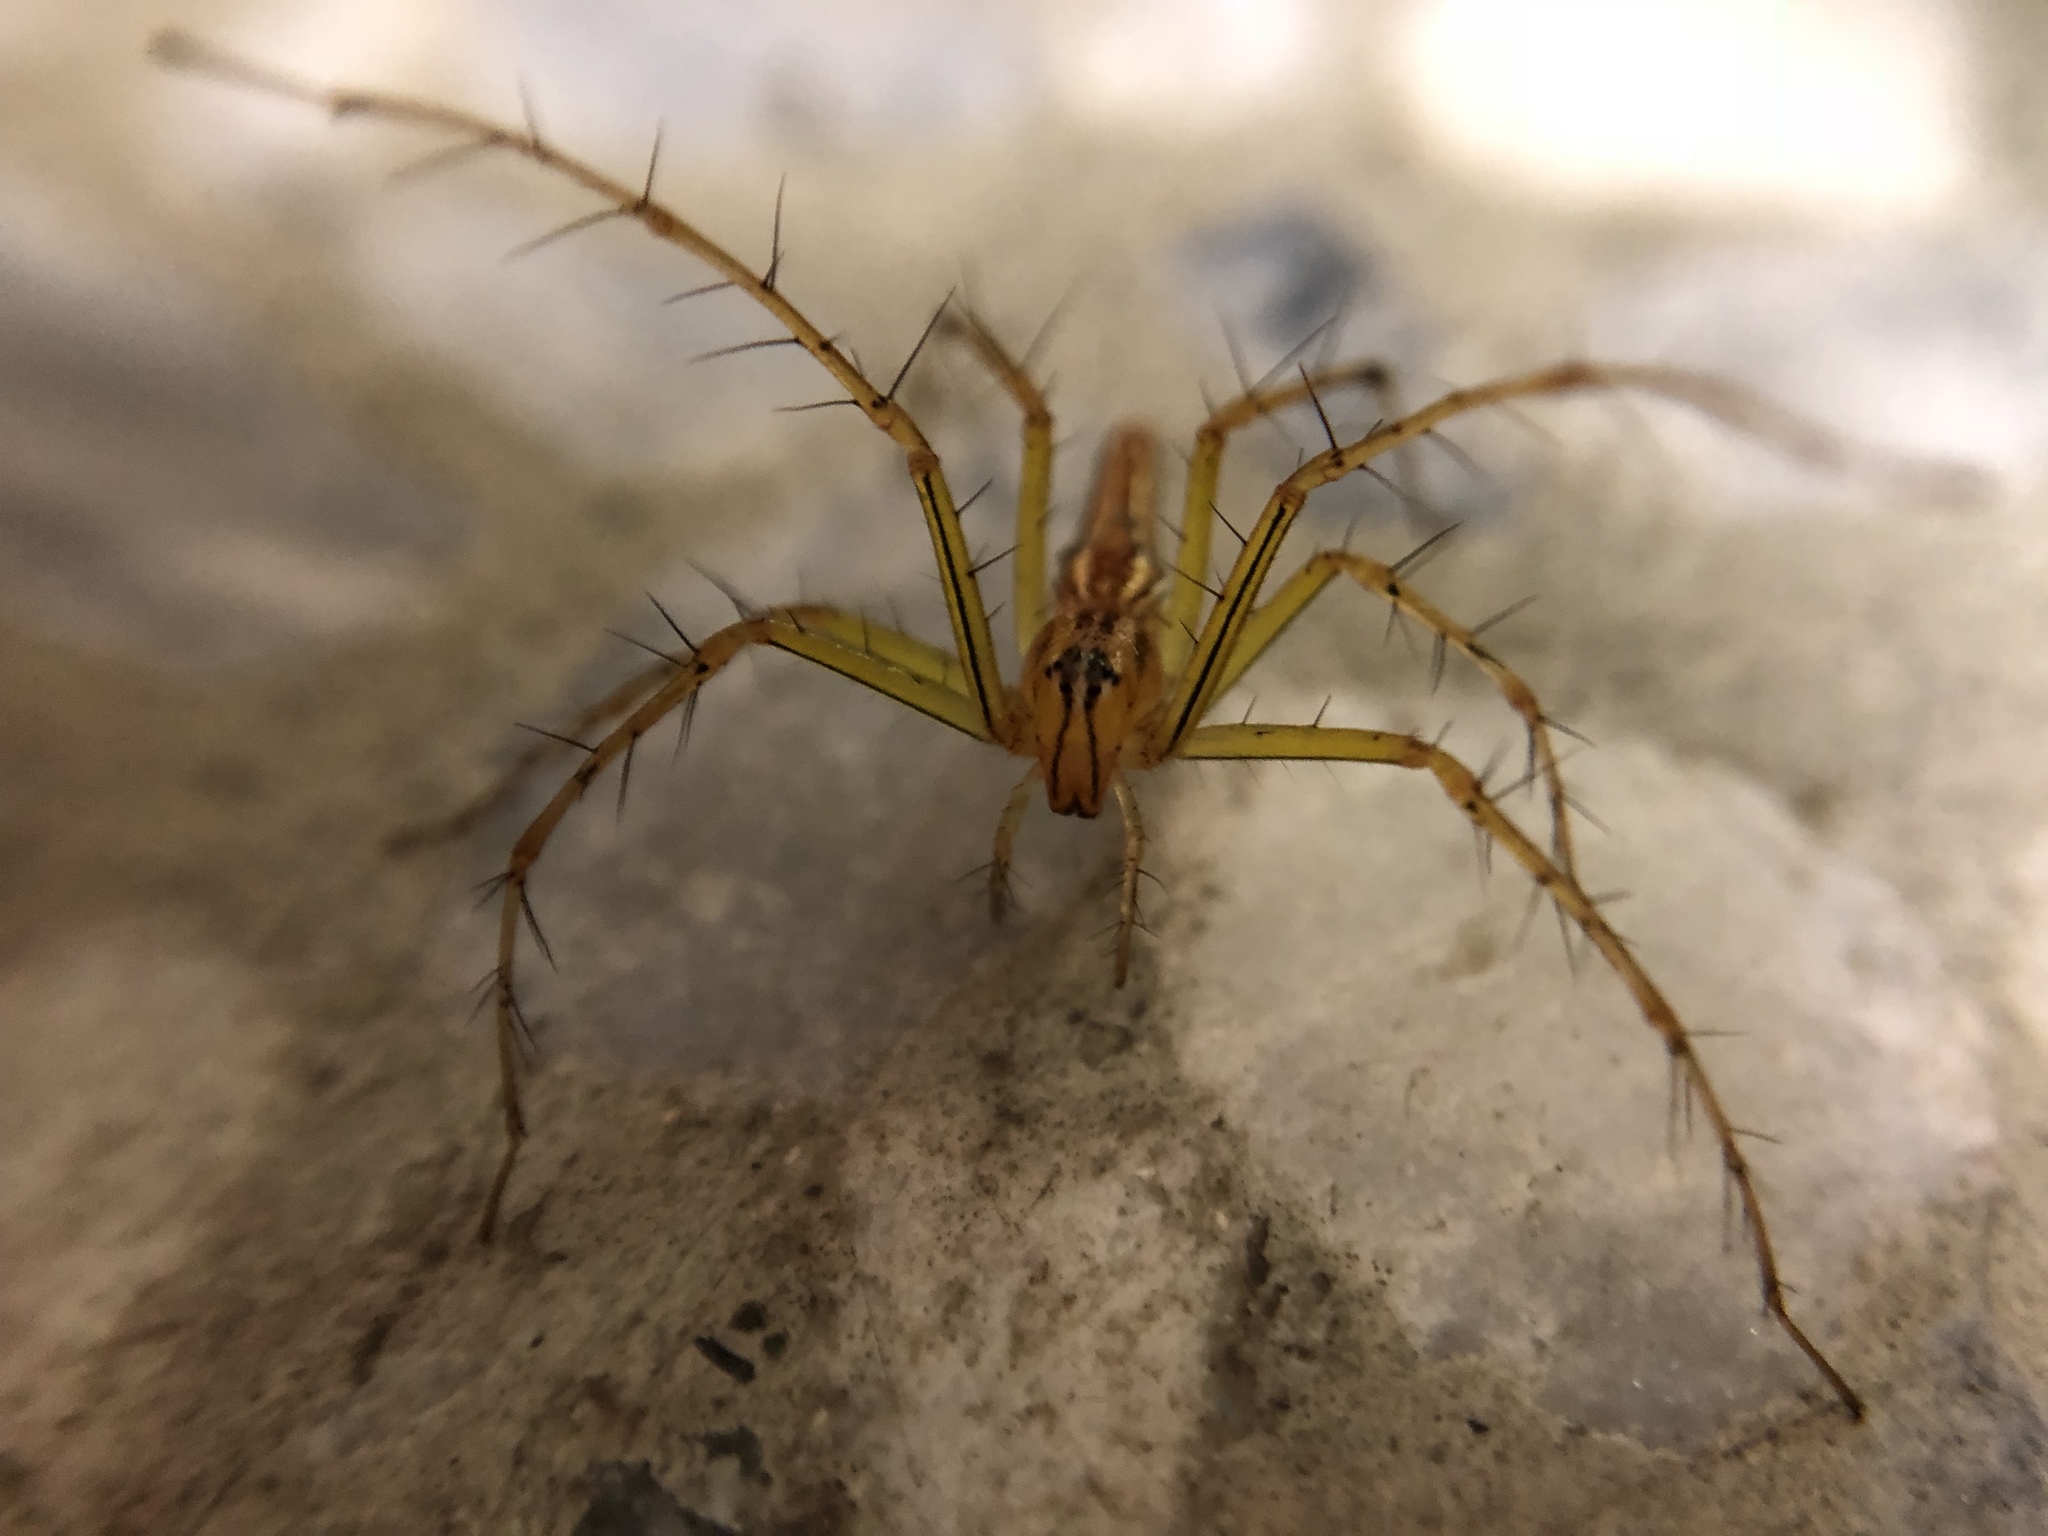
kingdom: Animalia
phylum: Arthropoda
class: Arachnida
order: Araneae
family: Oxyopidae
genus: Oxyopes
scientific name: Oxyopes macilentus
